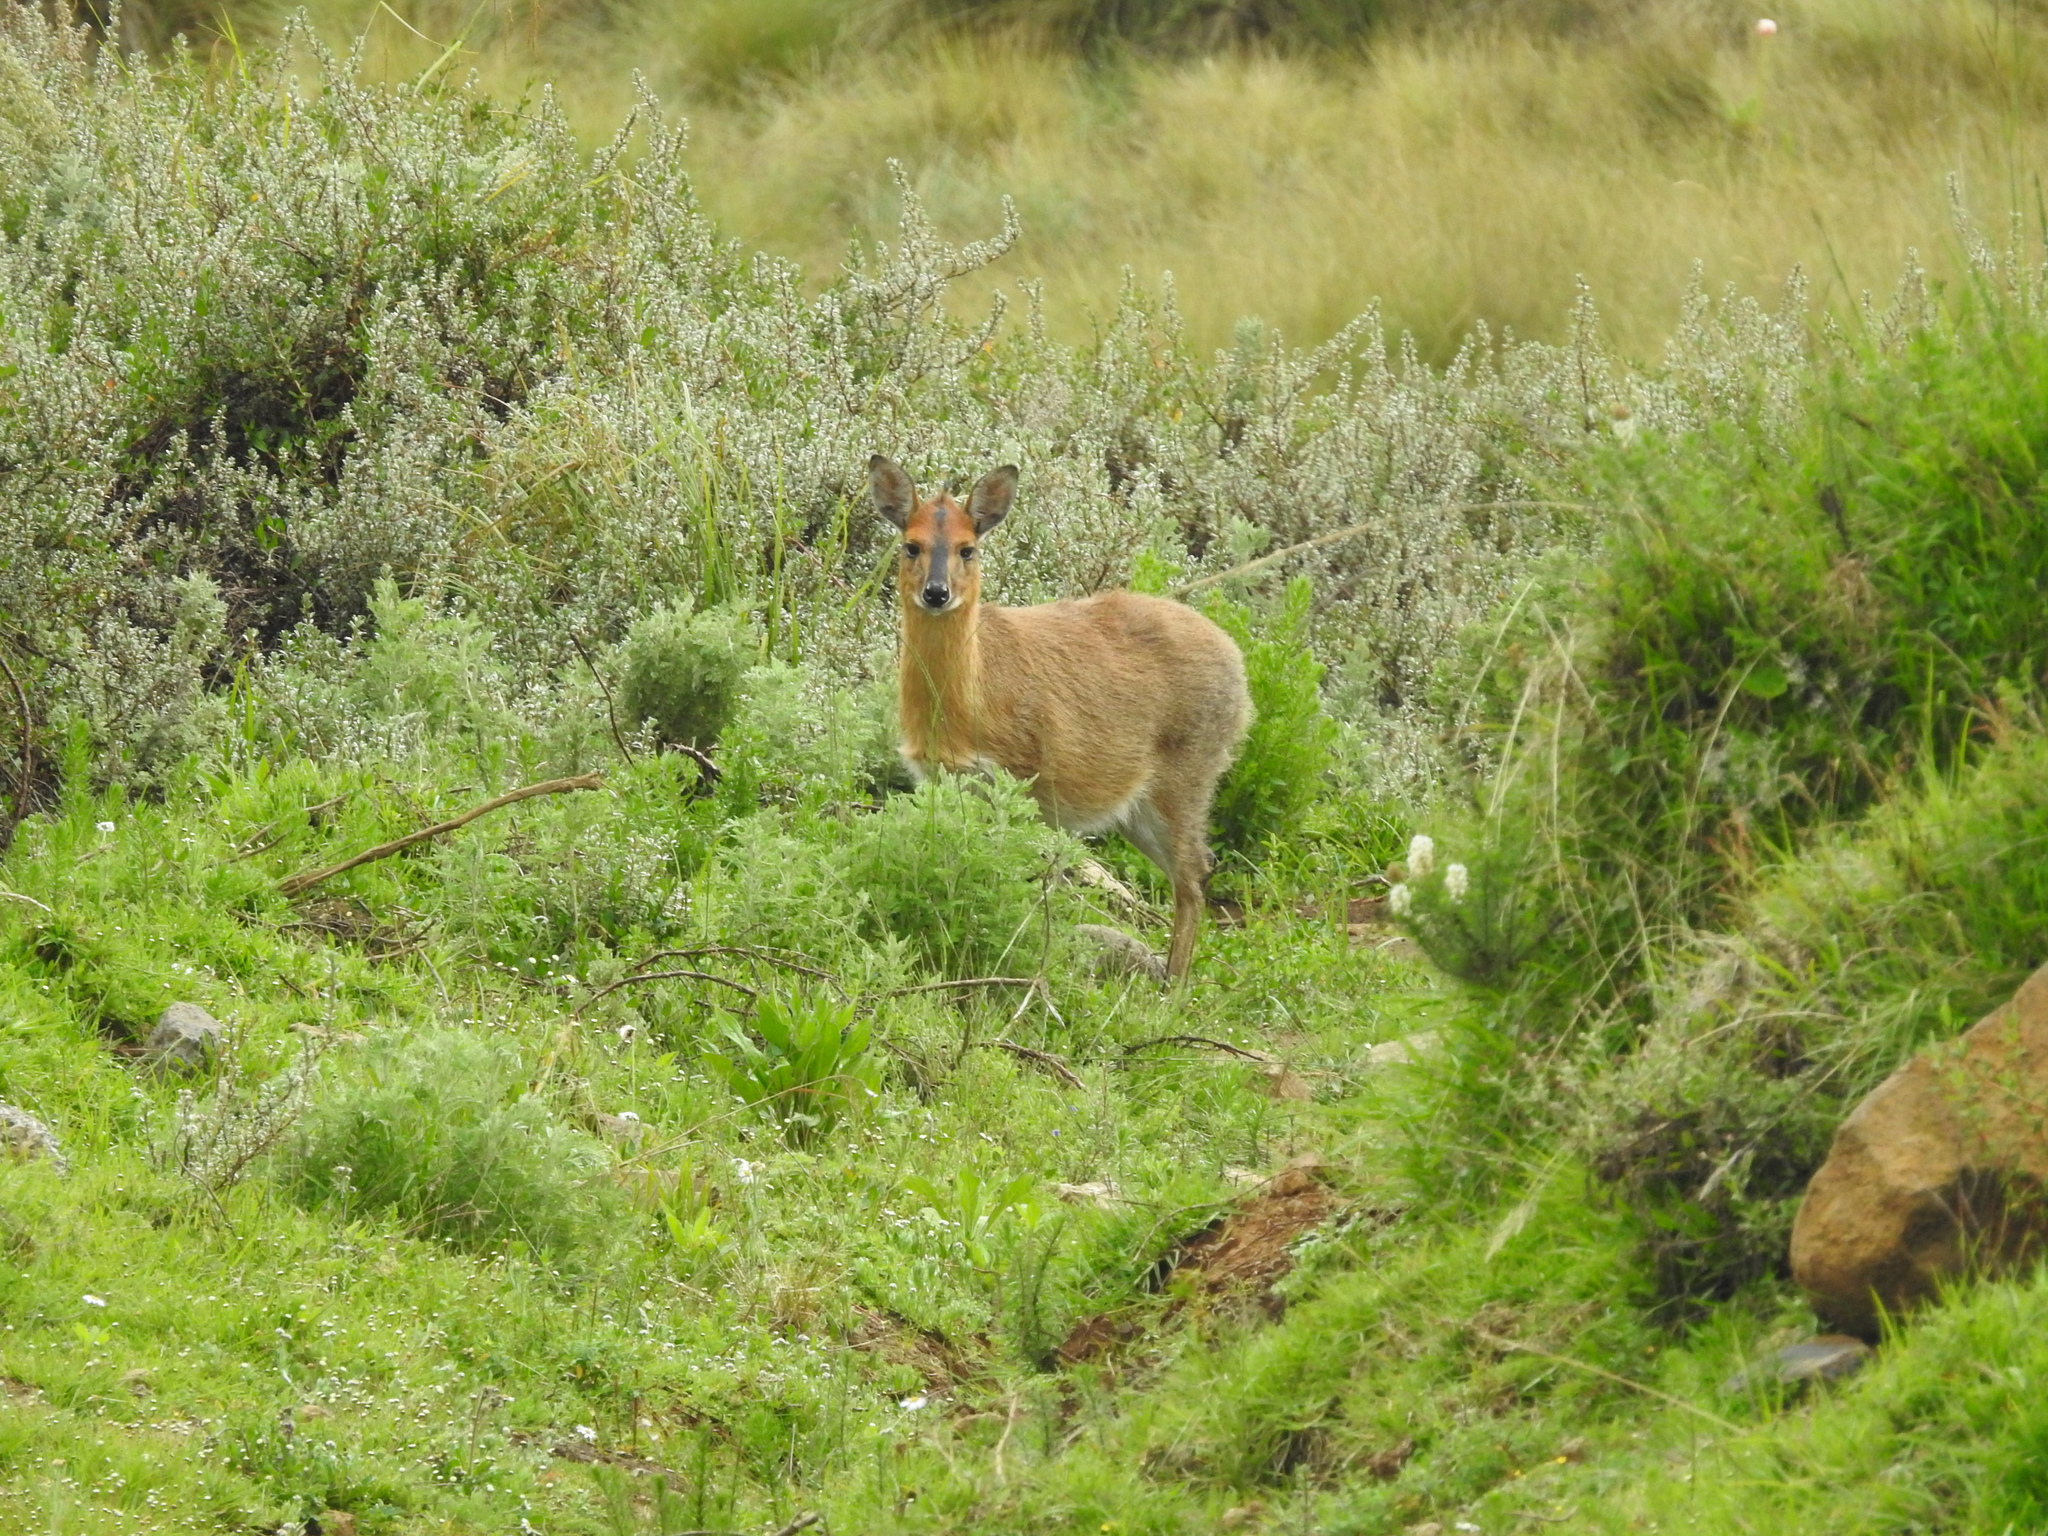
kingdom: Animalia
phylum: Chordata
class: Mammalia
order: Artiodactyla
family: Bovidae
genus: Sylvicapra
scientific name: Sylvicapra grimmia
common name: Bush duiker
